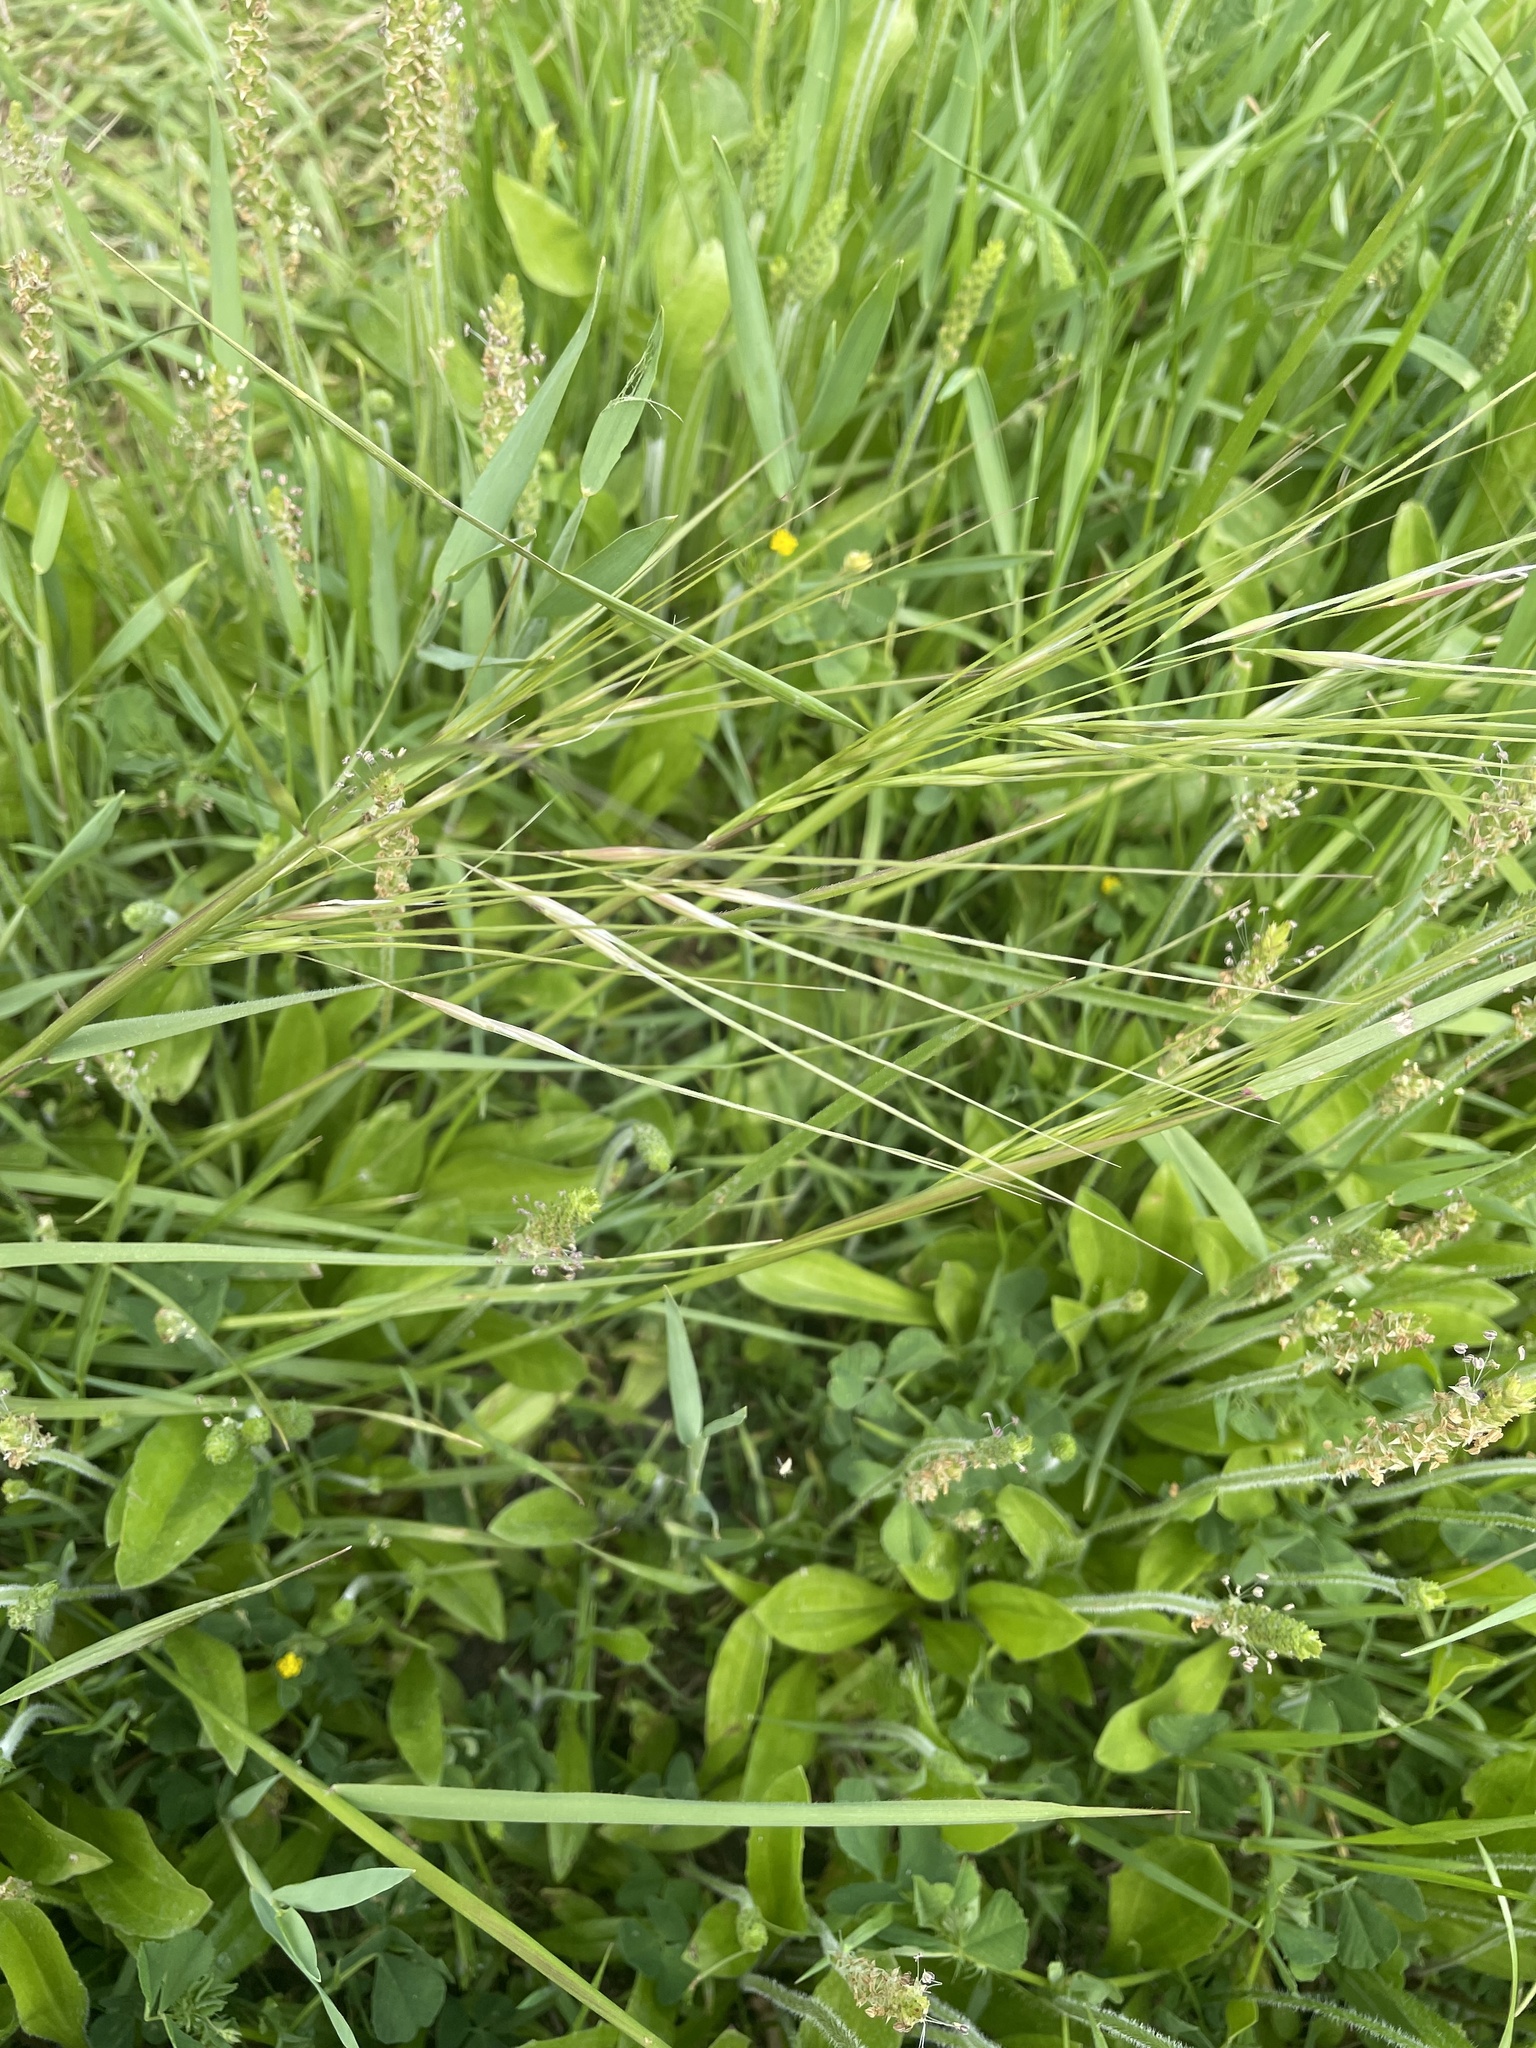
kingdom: Plantae
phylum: Tracheophyta
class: Liliopsida
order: Poales
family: Poaceae
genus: Nassella
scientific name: Nassella leucotricha
